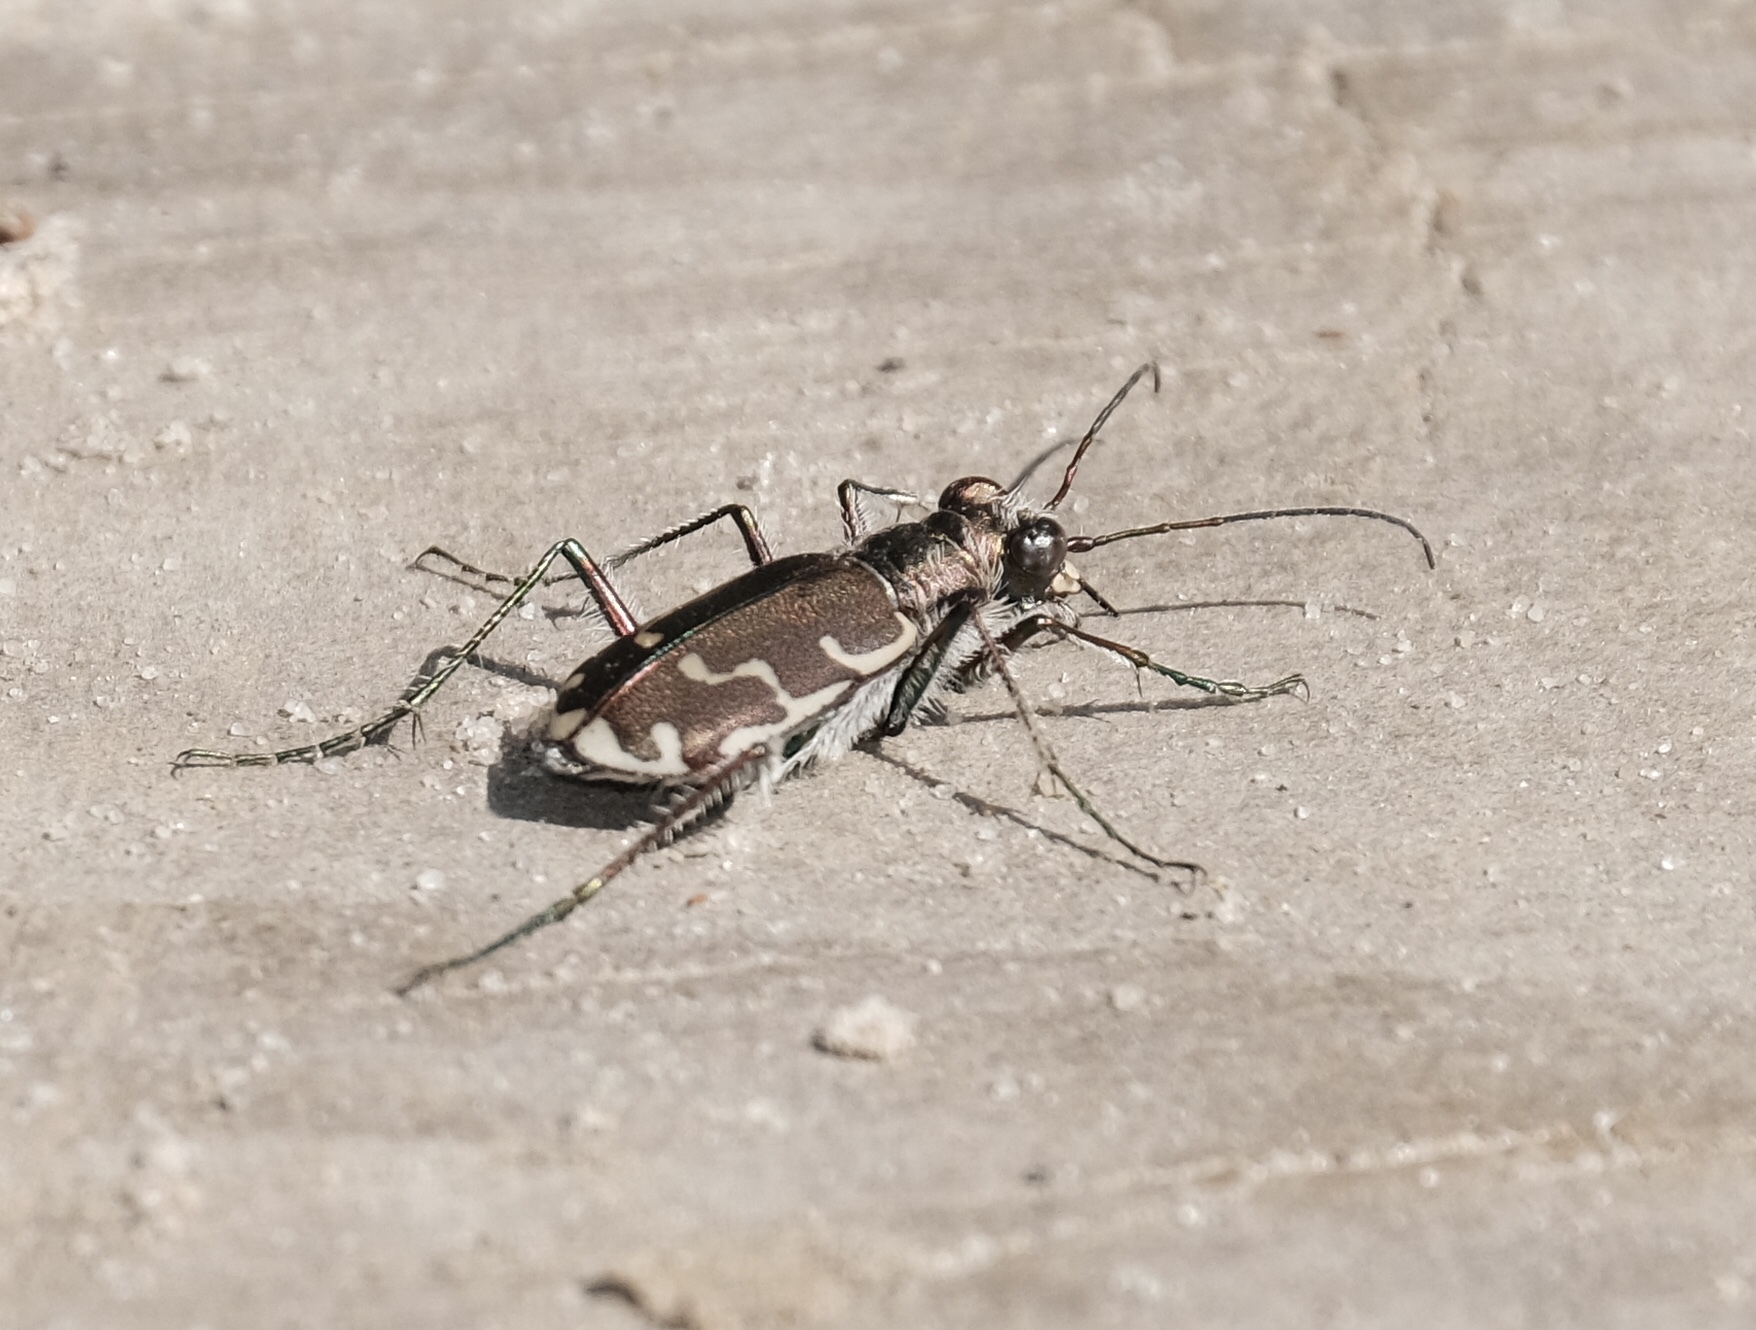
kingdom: Animalia
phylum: Arthropoda
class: Insecta
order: Coleoptera
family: Carabidae
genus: Cicindela
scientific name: Cicindela repanda
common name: Bronzed tiger beetle
